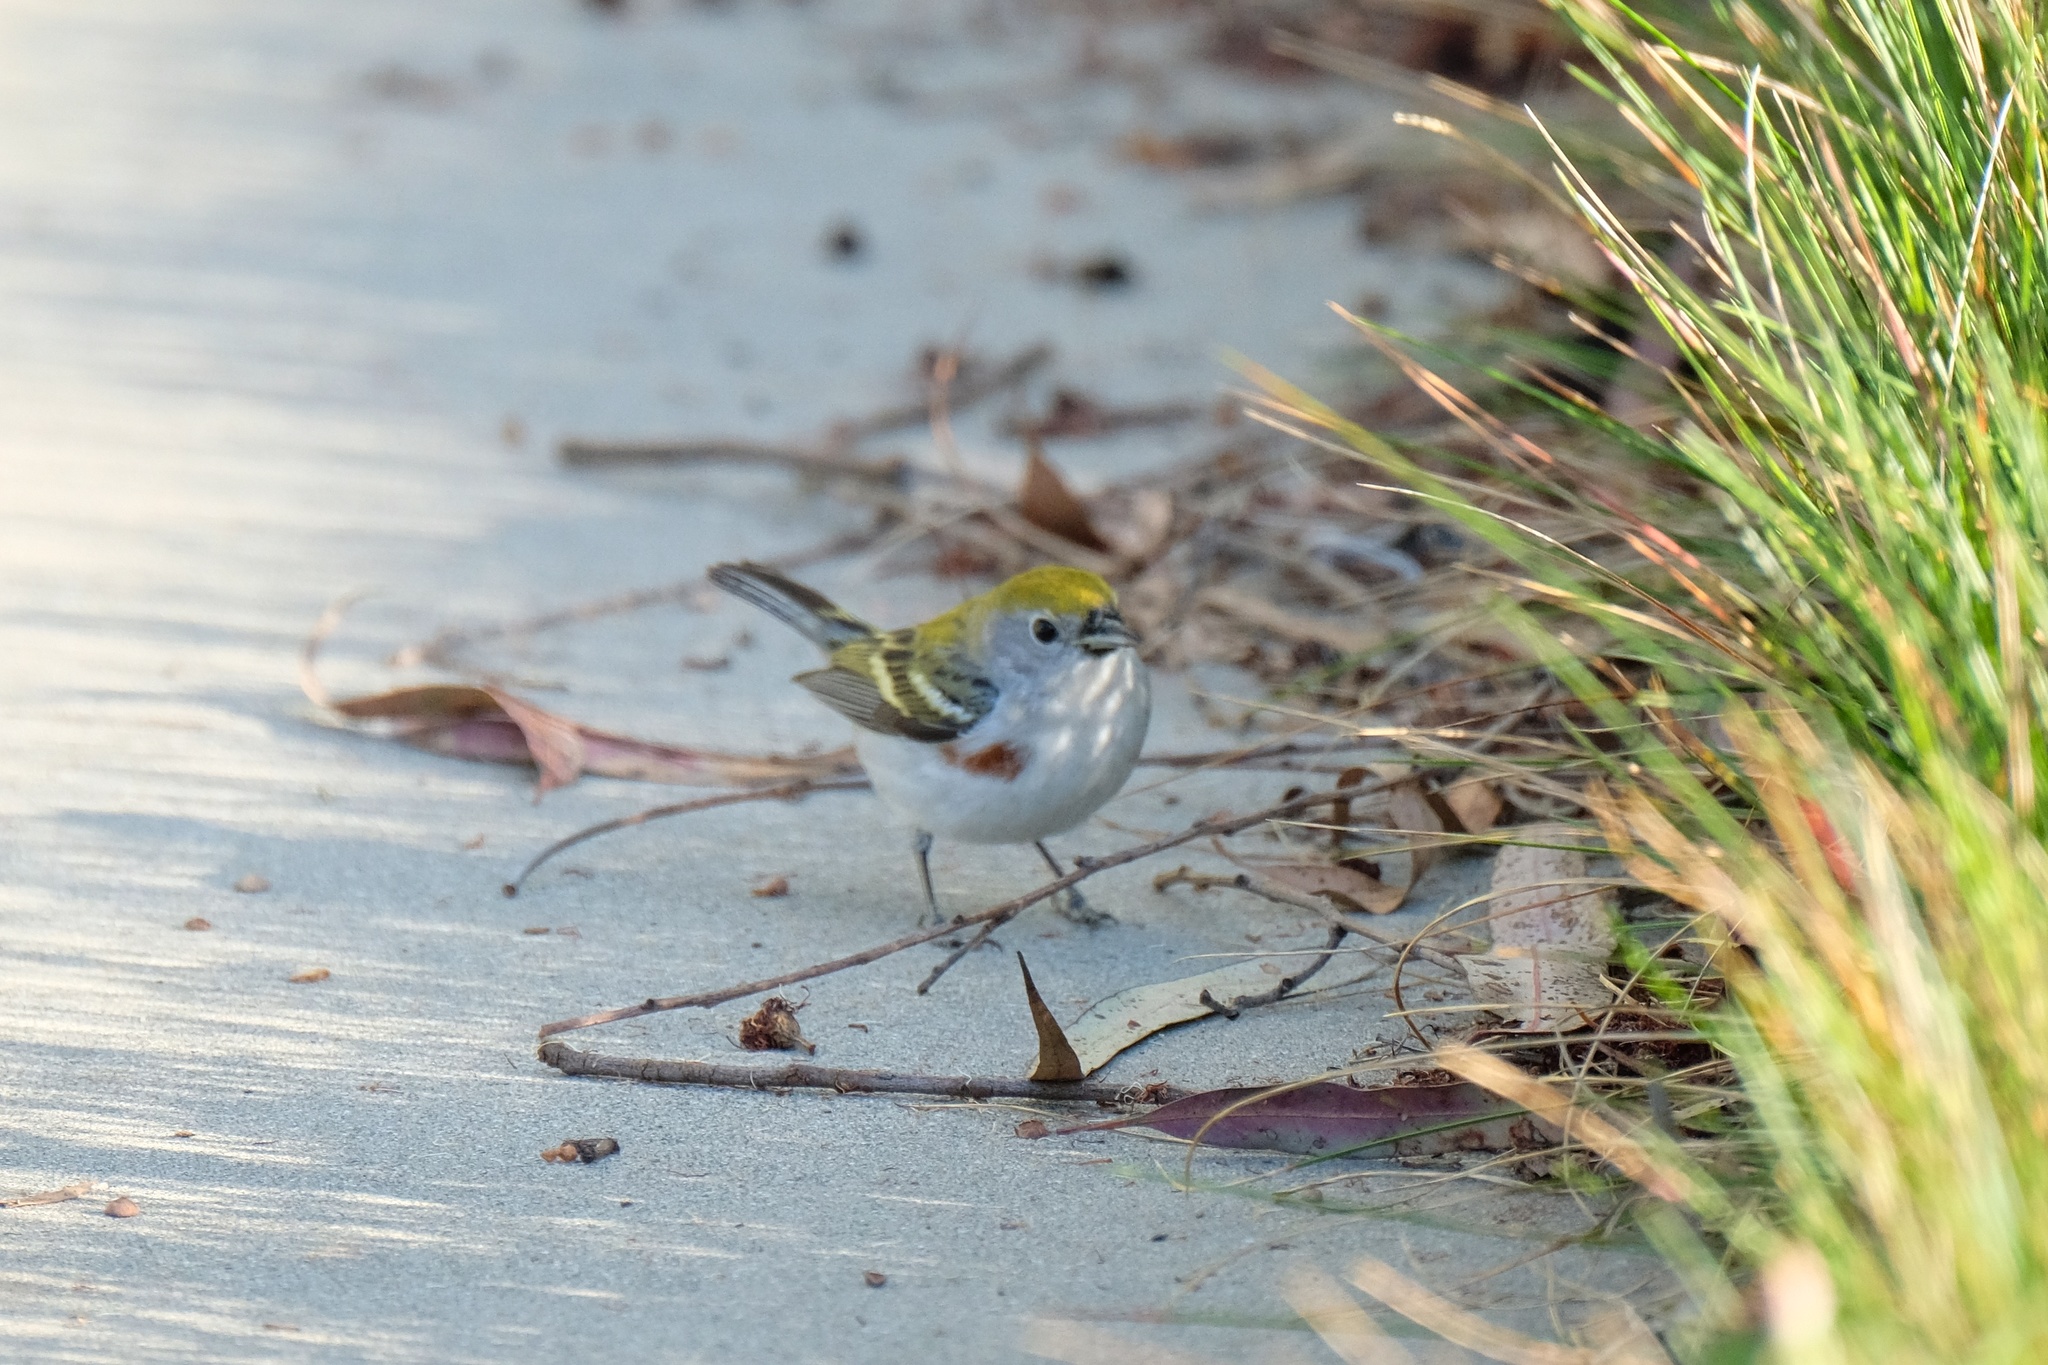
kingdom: Animalia
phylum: Chordata
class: Aves
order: Passeriformes
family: Parulidae
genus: Setophaga
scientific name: Setophaga pensylvanica
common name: Chestnut-sided warbler
